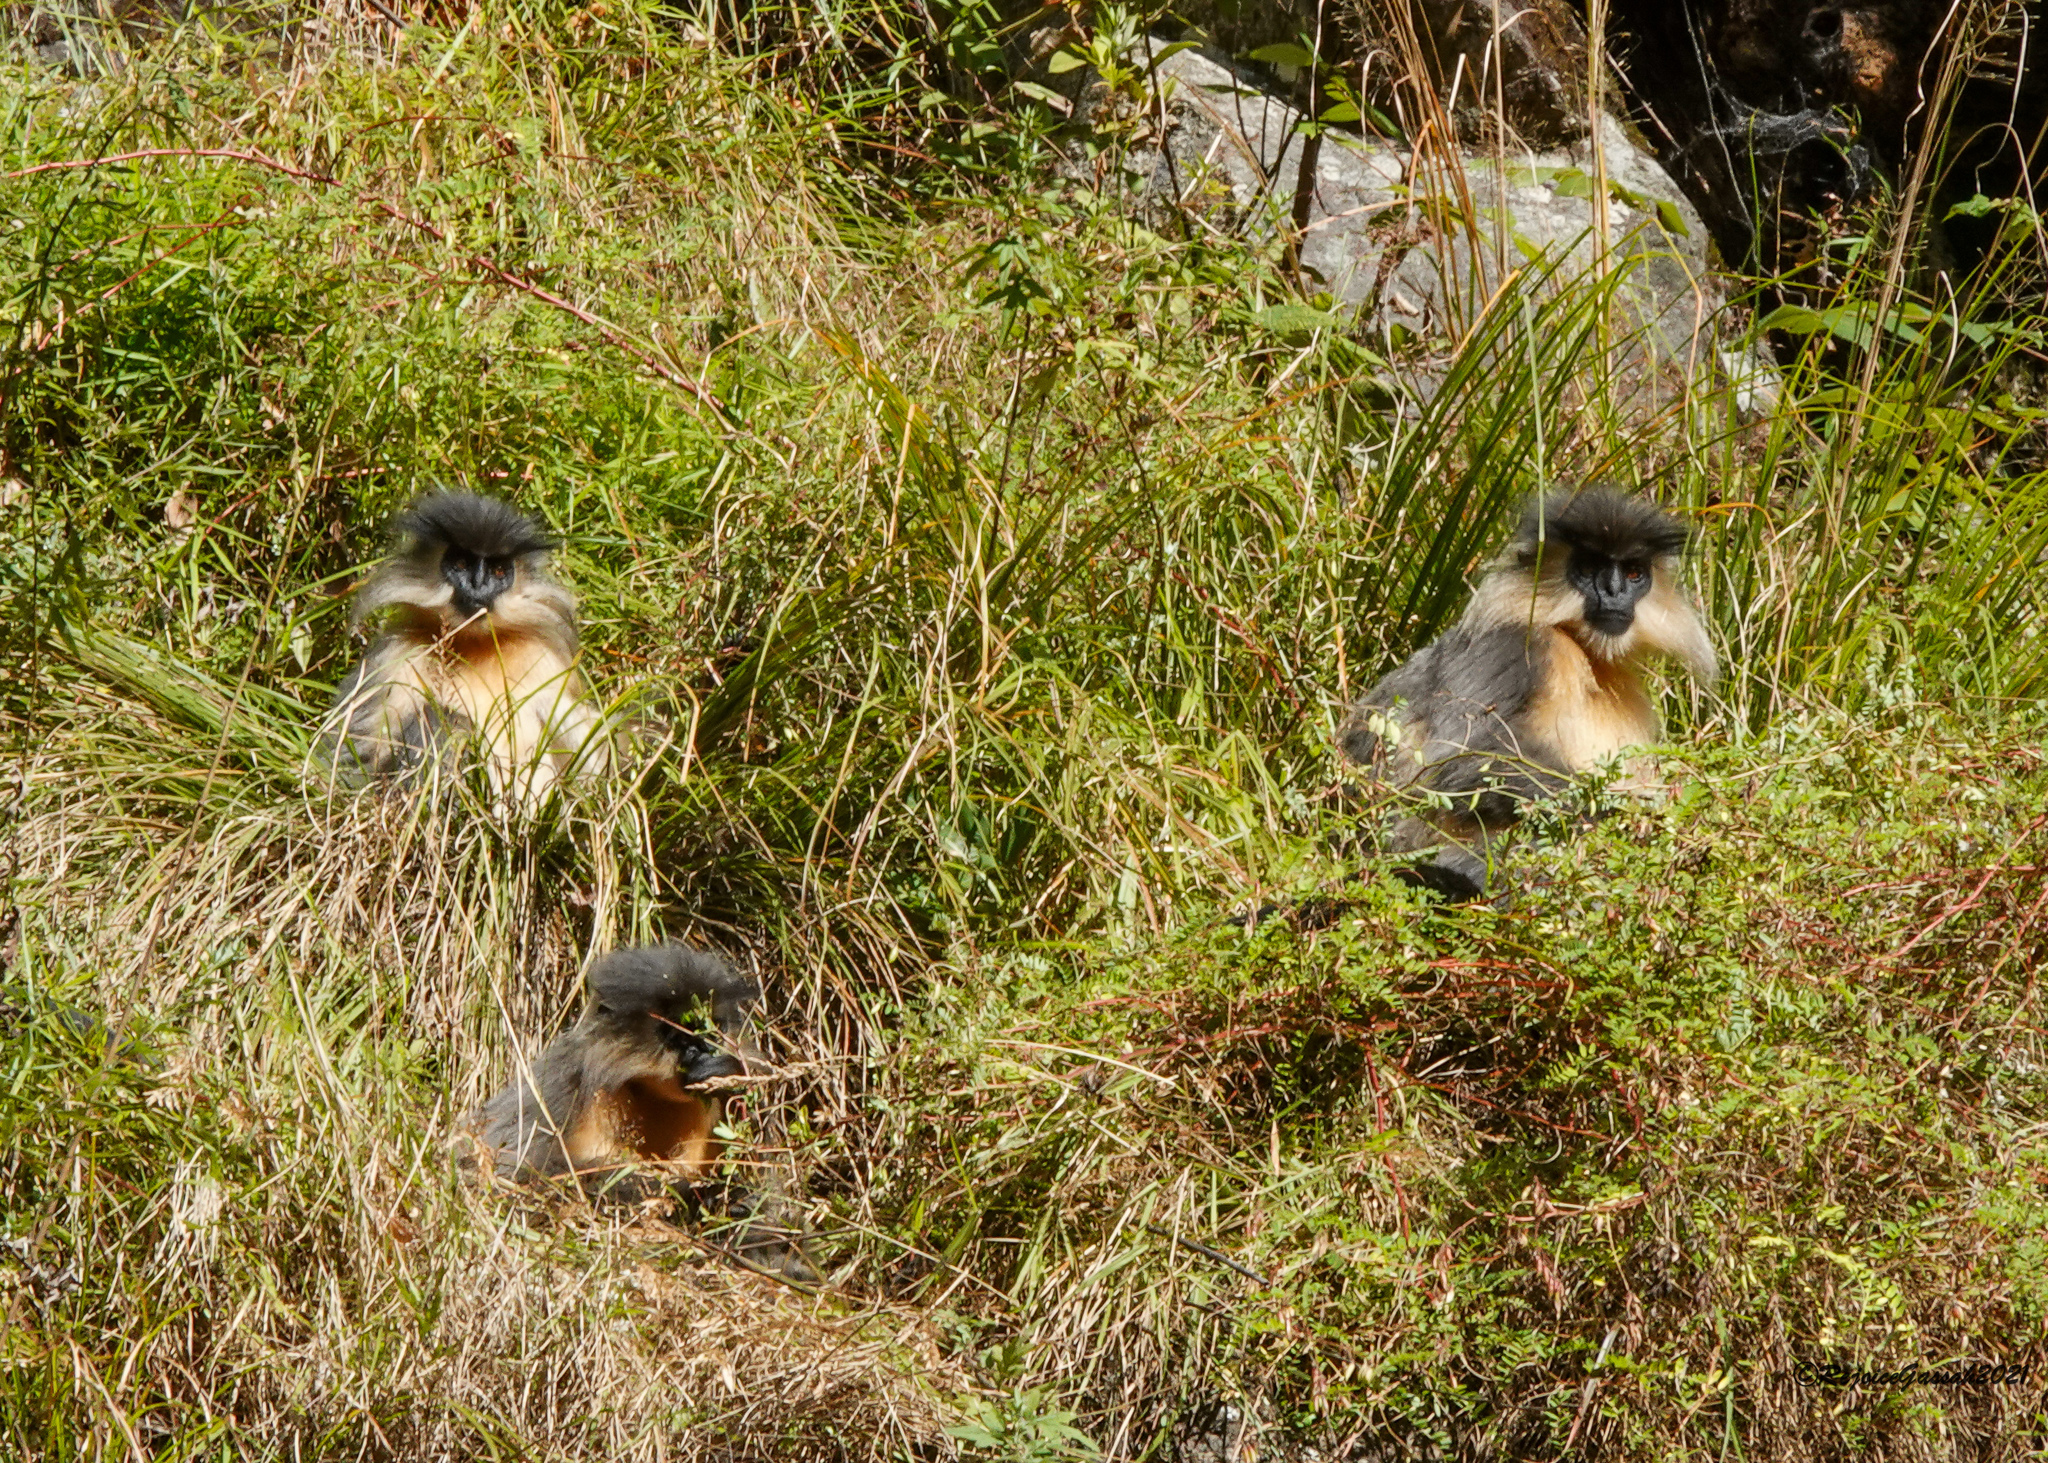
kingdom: Animalia
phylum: Chordata
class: Mammalia
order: Primates
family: Cercopithecidae
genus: Trachypithecus
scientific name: Trachypithecus pileatus
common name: Capped langur
